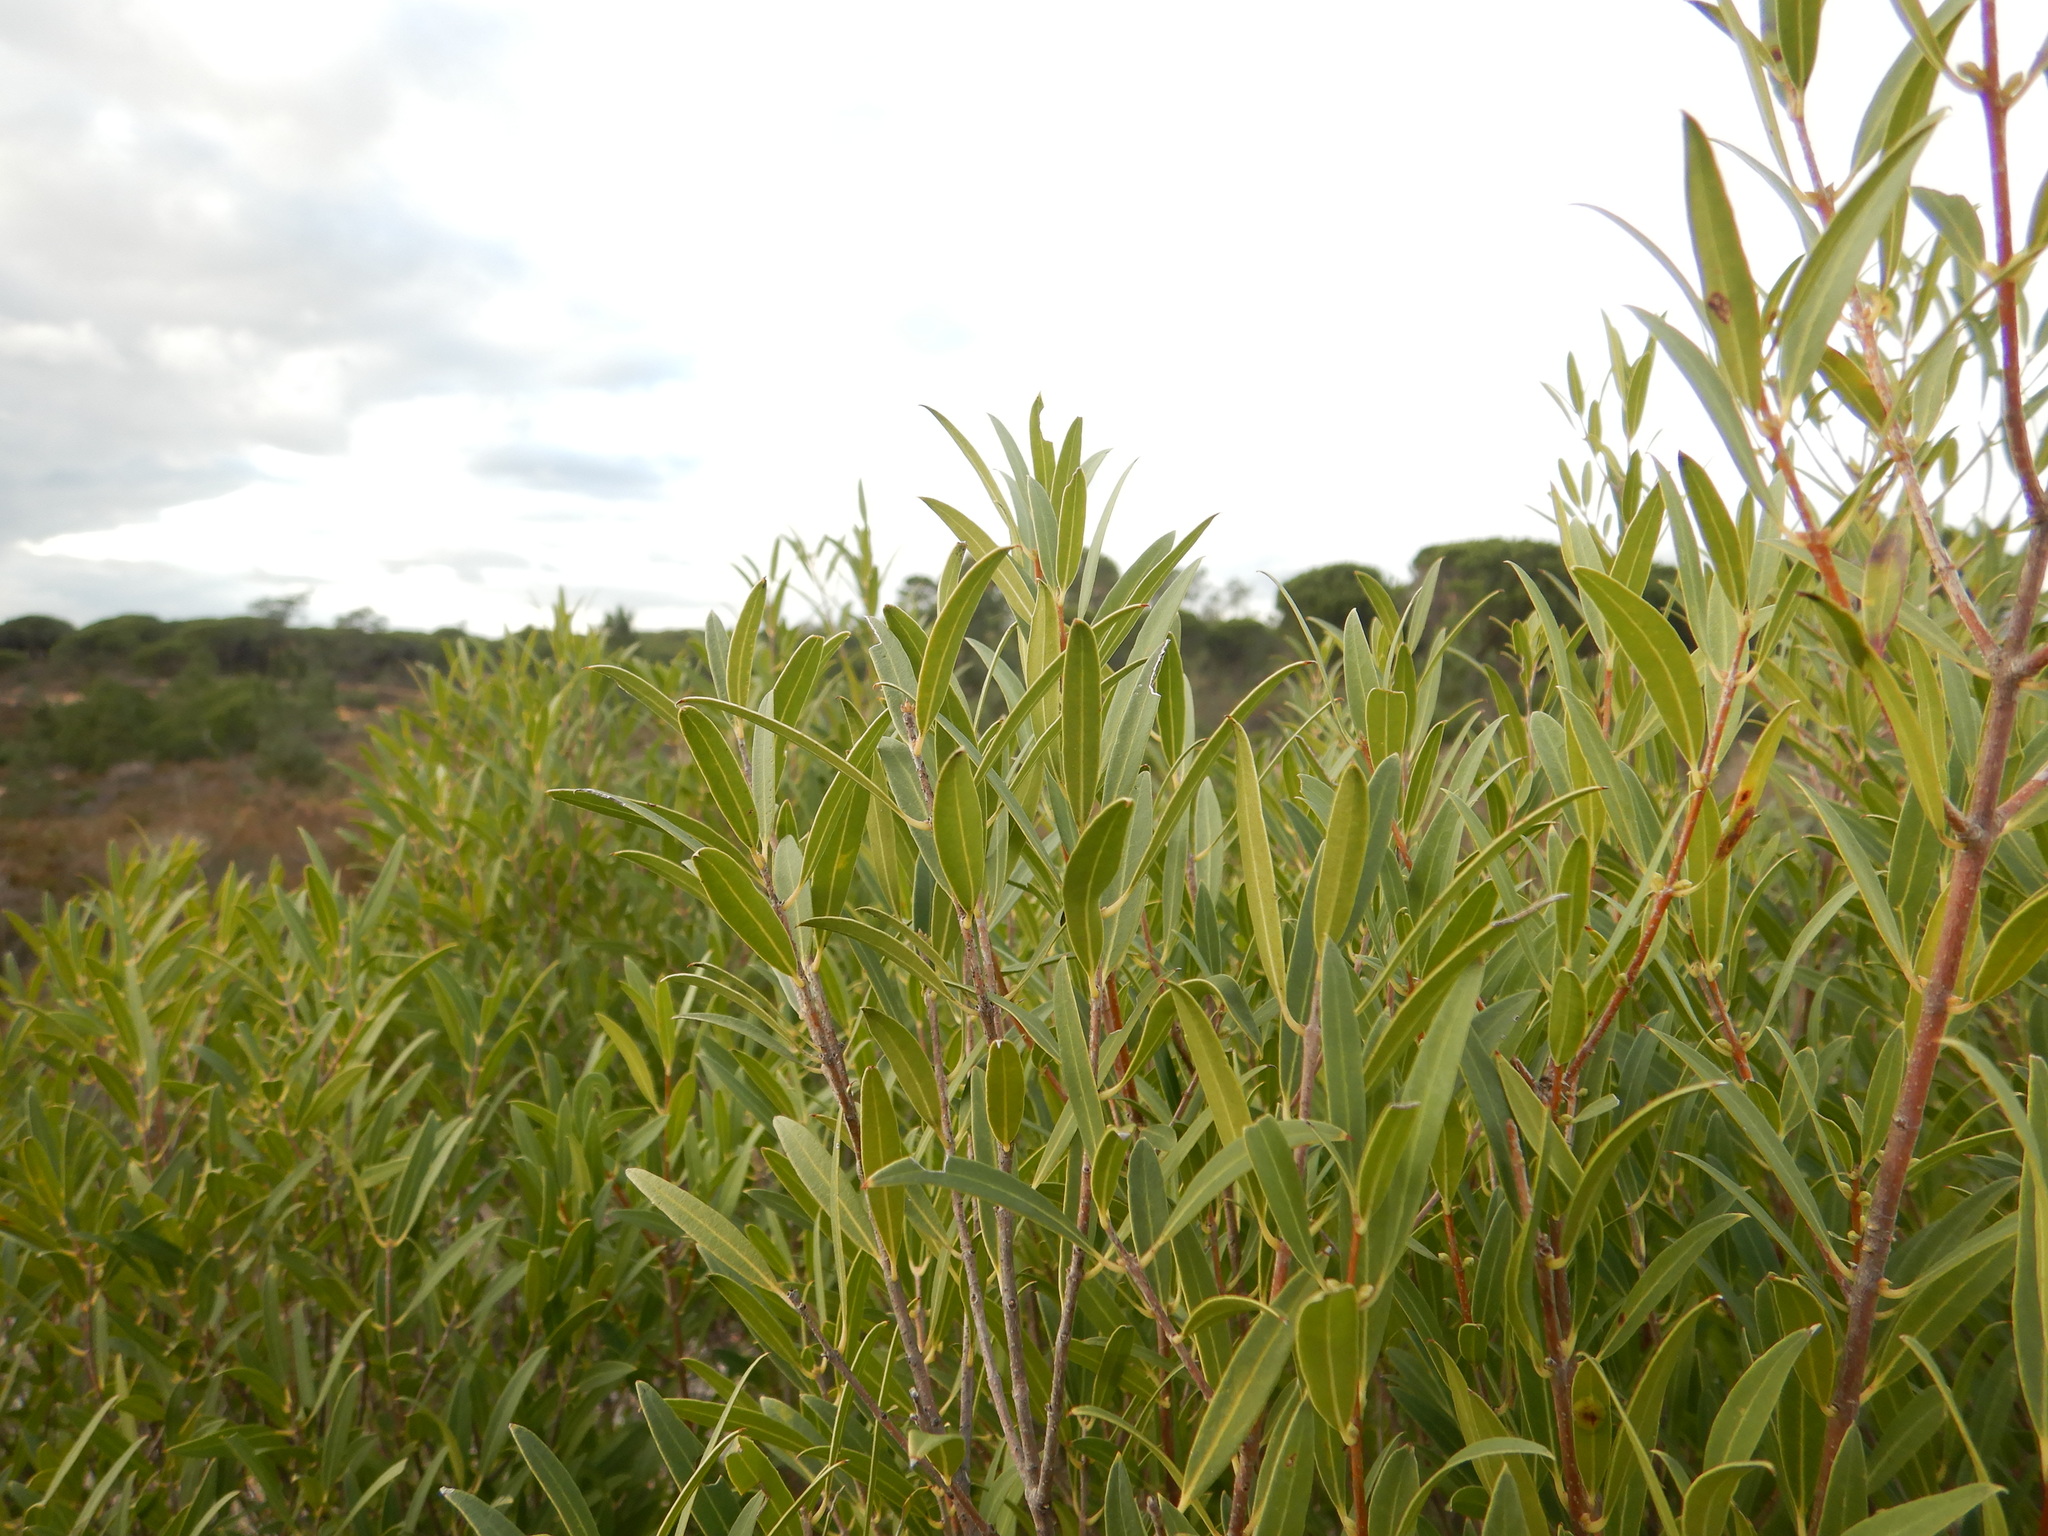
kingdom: Plantae
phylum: Tracheophyta
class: Magnoliopsida
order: Lamiales
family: Oleaceae
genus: Phillyrea
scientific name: Phillyrea angustifolia
